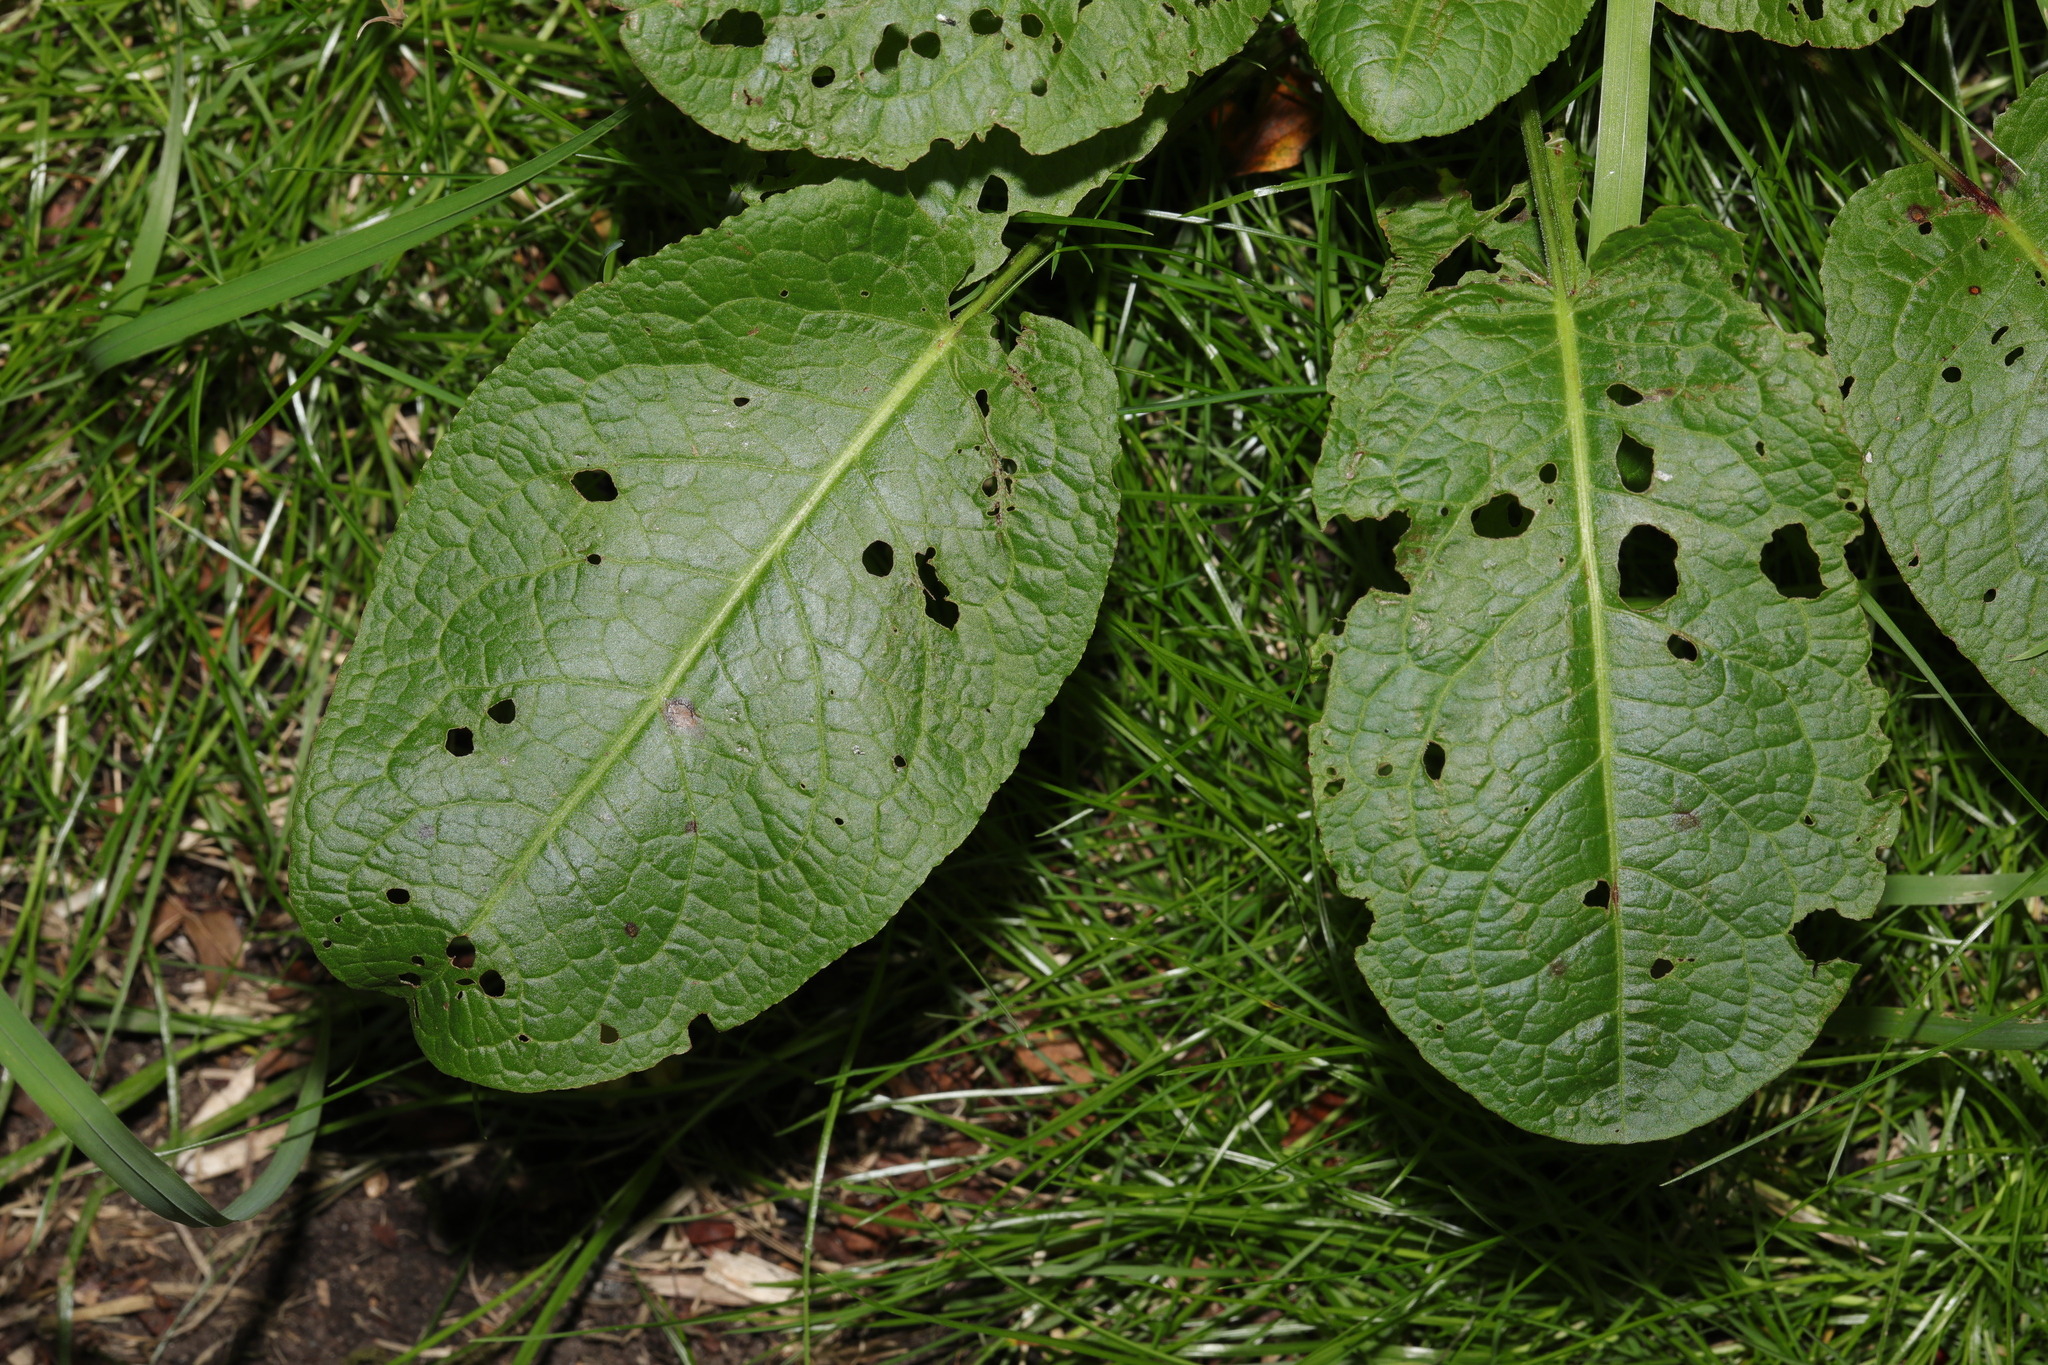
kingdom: Plantae
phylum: Tracheophyta
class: Magnoliopsida
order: Caryophyllales
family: Polygonaceae
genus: Rumex
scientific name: Rumex obtusifolius
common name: Bitter dock
